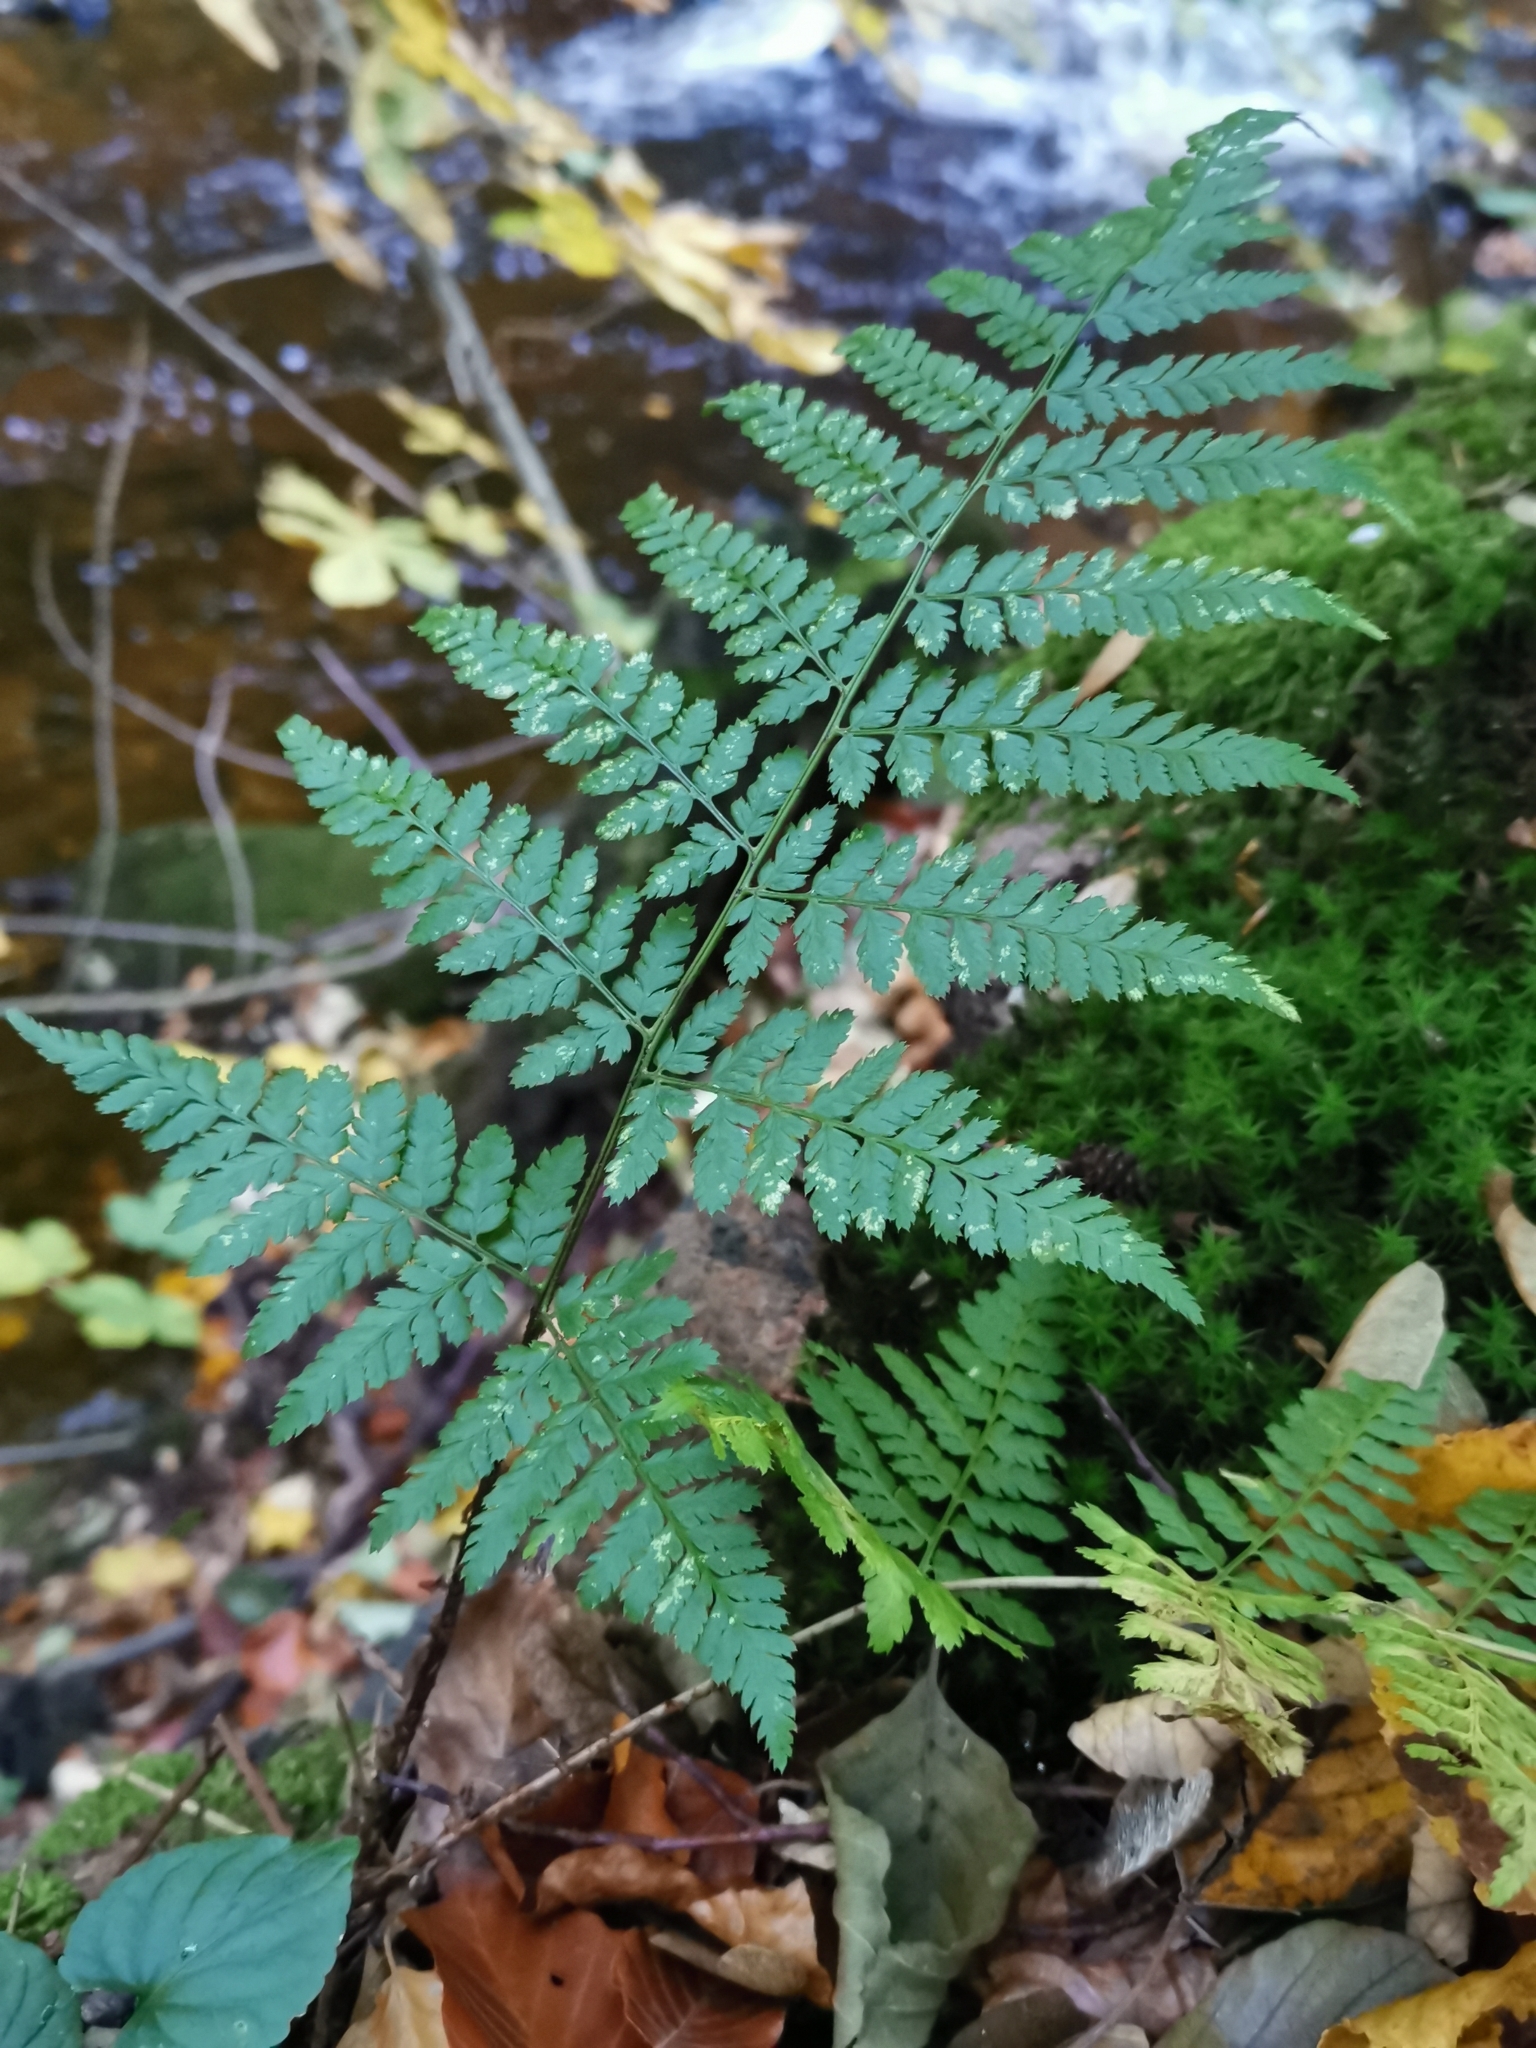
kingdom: Plantae
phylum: Tracheophyta
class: Polypodiopsida
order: Polypodiales
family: Dryopteridaceae
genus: Dryopteris
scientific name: Dryopteris dilatata
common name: Broad buckler-fern
